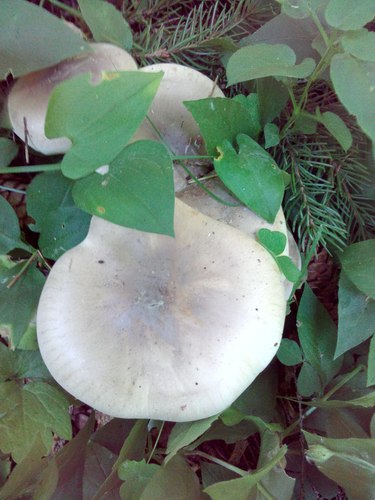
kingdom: Fungi
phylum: Basidiomycota
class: Agaricomycetes
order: Agaricales
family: Tricholomataceae
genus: Clitocybe
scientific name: Clitocybe nebularis
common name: Clouded agaric
